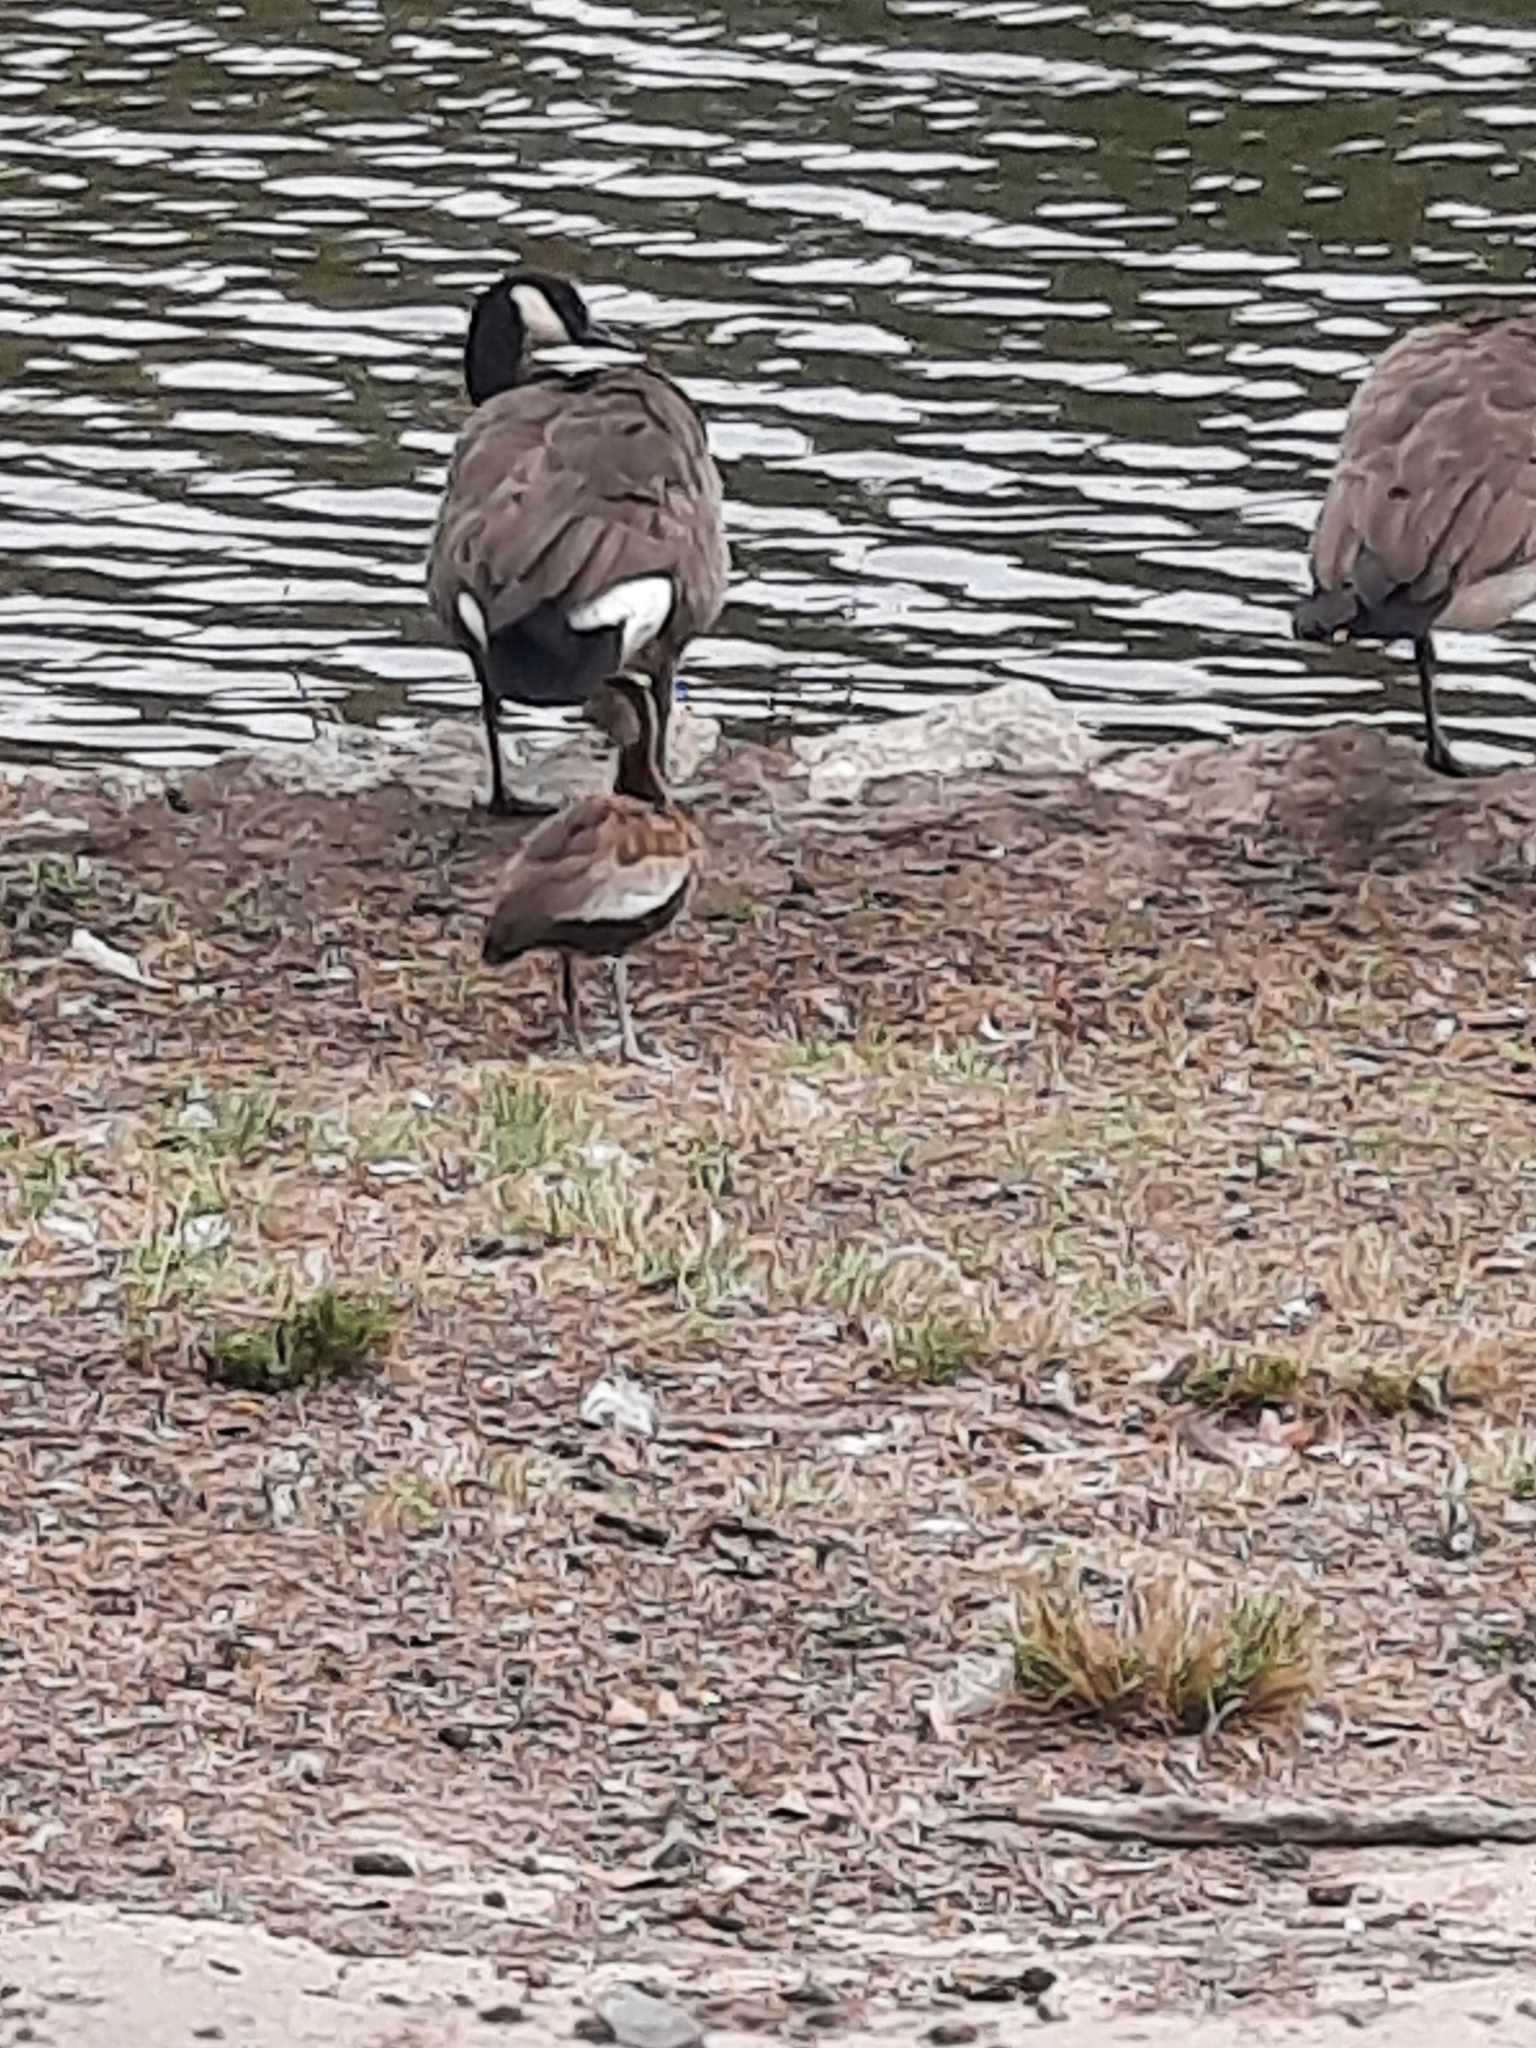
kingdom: Animalia
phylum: Chordata
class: Aves
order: Anseriformes
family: Anatidae
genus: Dendrocygna
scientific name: Dendrocygna autumnalis
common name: Black-bellied whistling duck
